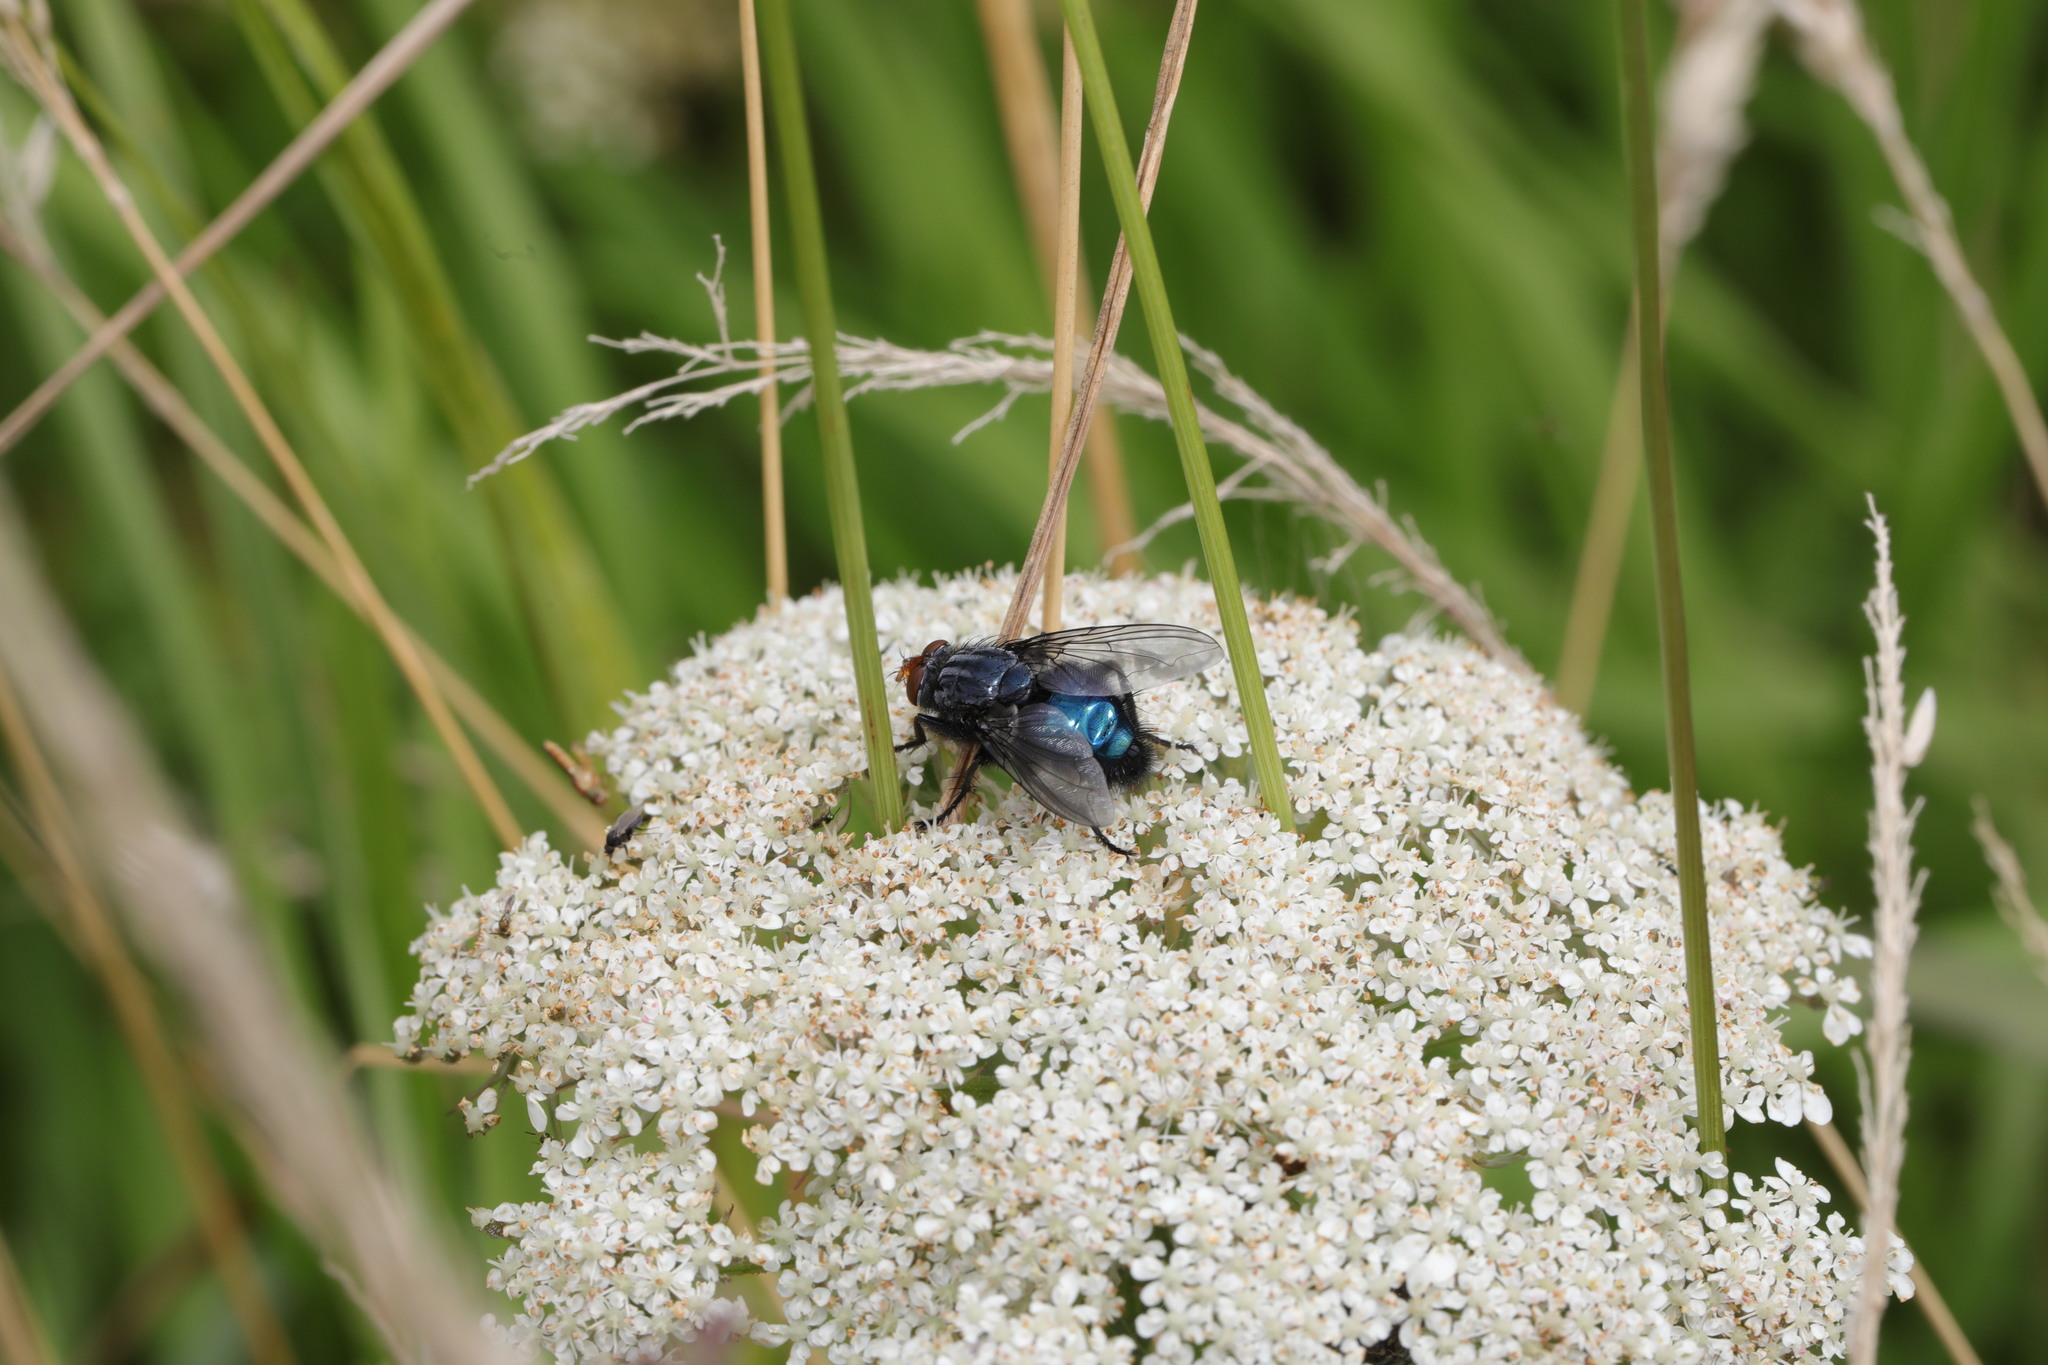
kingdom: Animalia
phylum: Arthropoda
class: Insecta
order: Diptera
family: Calliphoridae
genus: Cynomya
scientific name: Cynomya mortuorum
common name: Bluebottle blow fly
